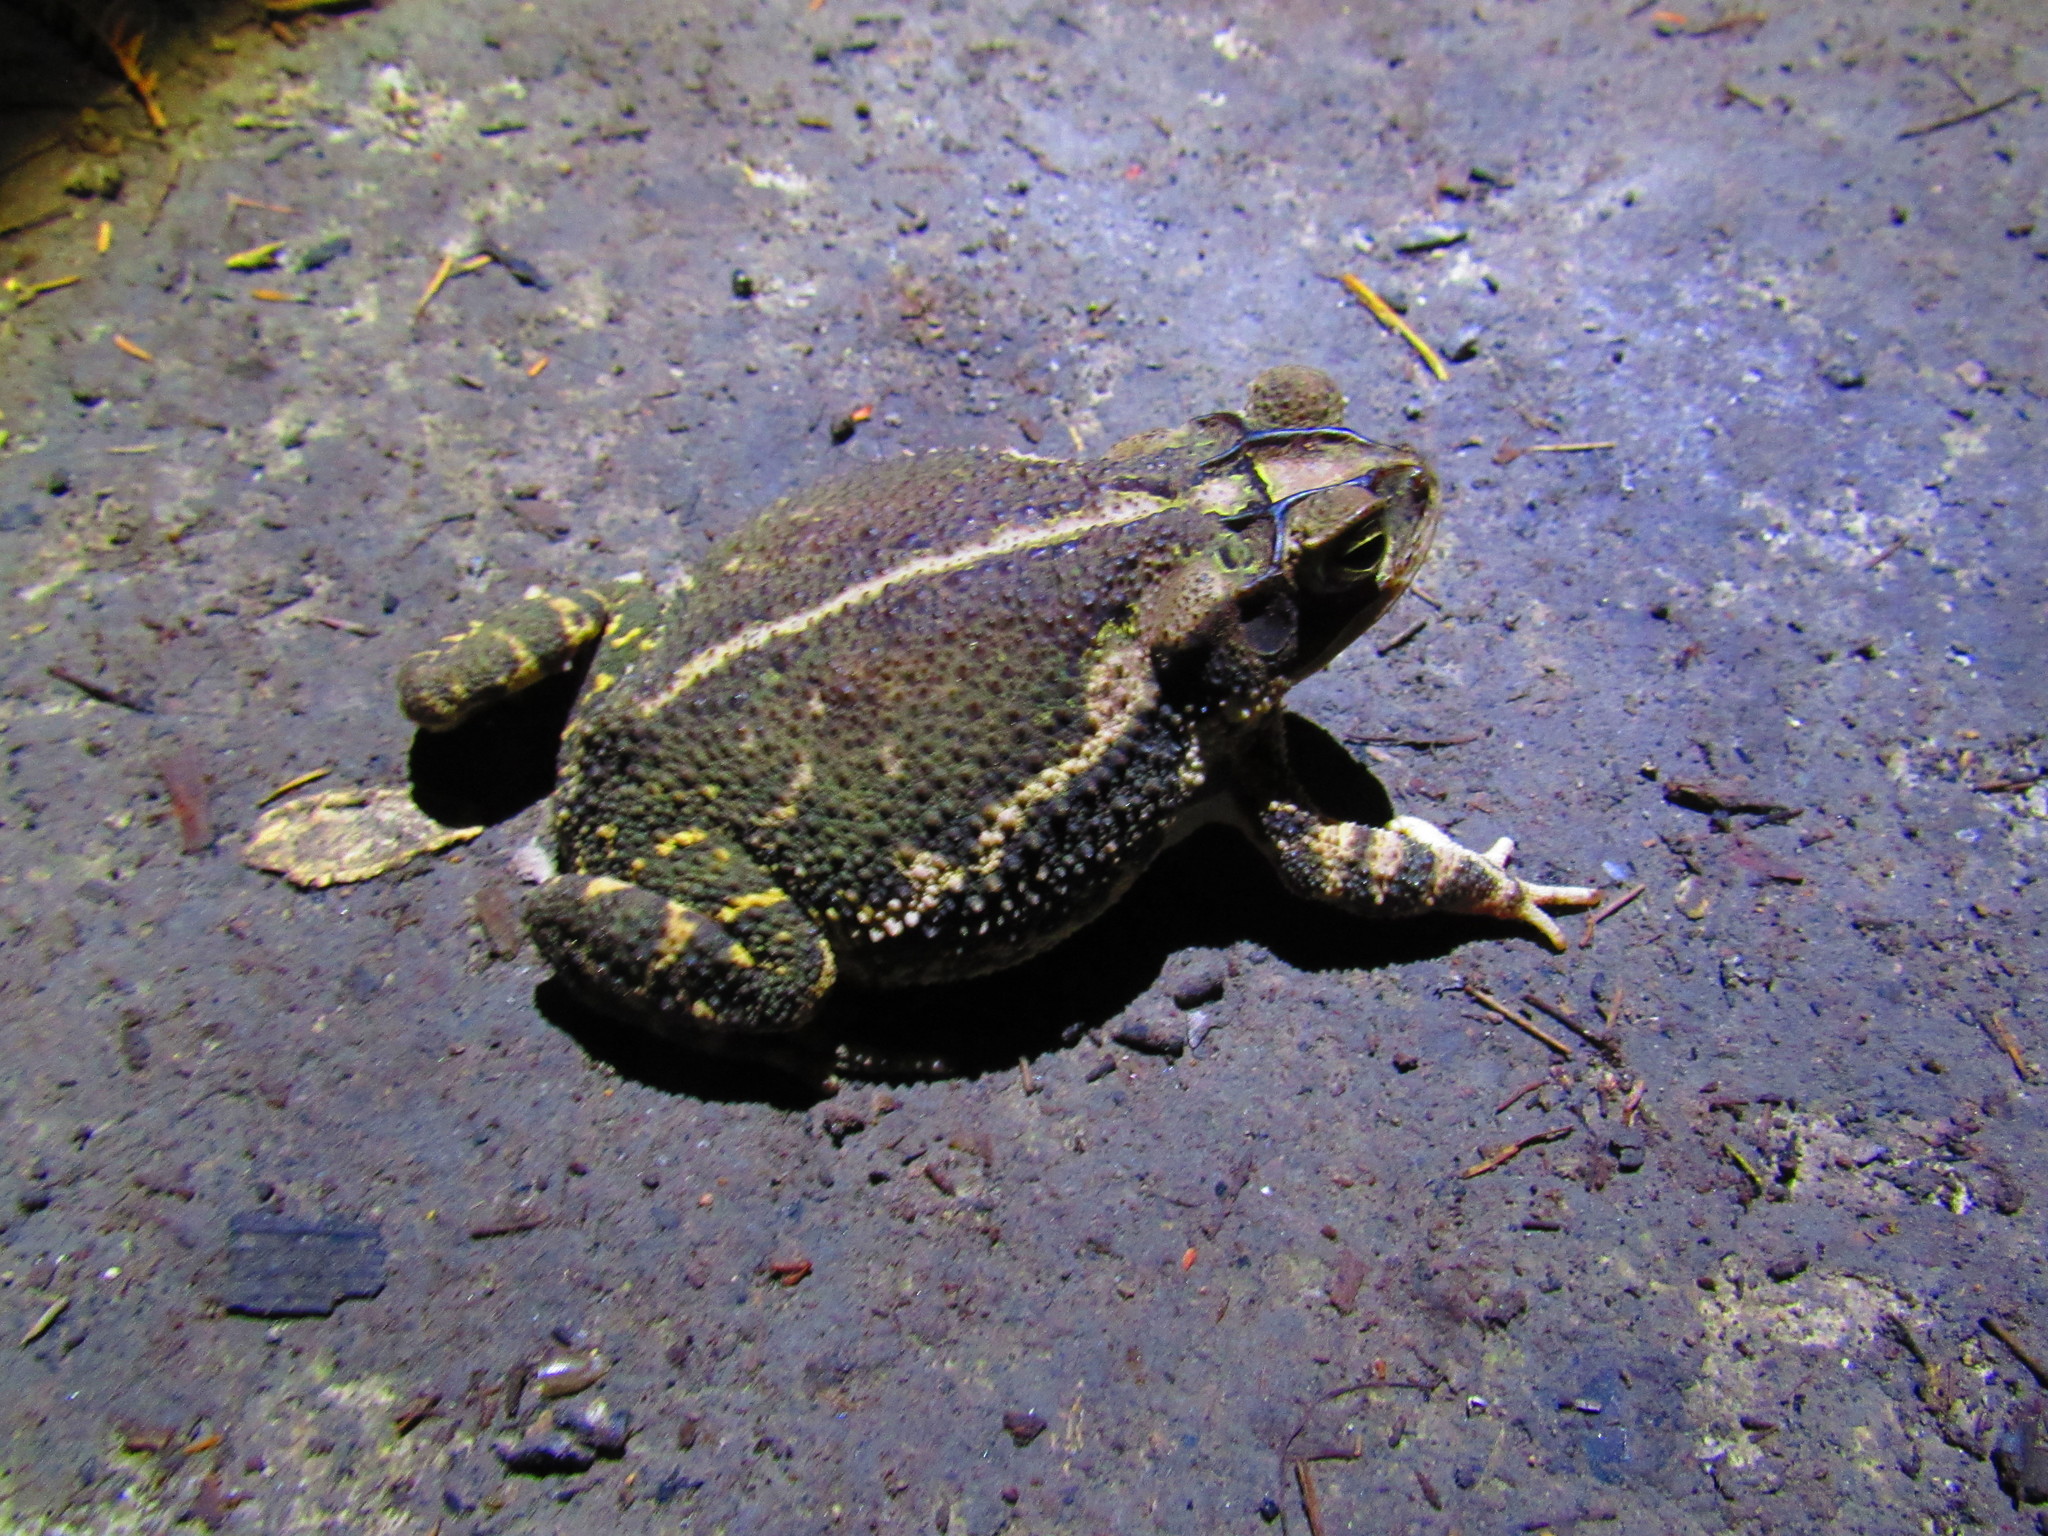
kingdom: Animalia
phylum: Chordata
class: Amphibia
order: Anura
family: Bufonidae
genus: Incilius
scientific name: Incilius nebulifer
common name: Gulf coast toad
